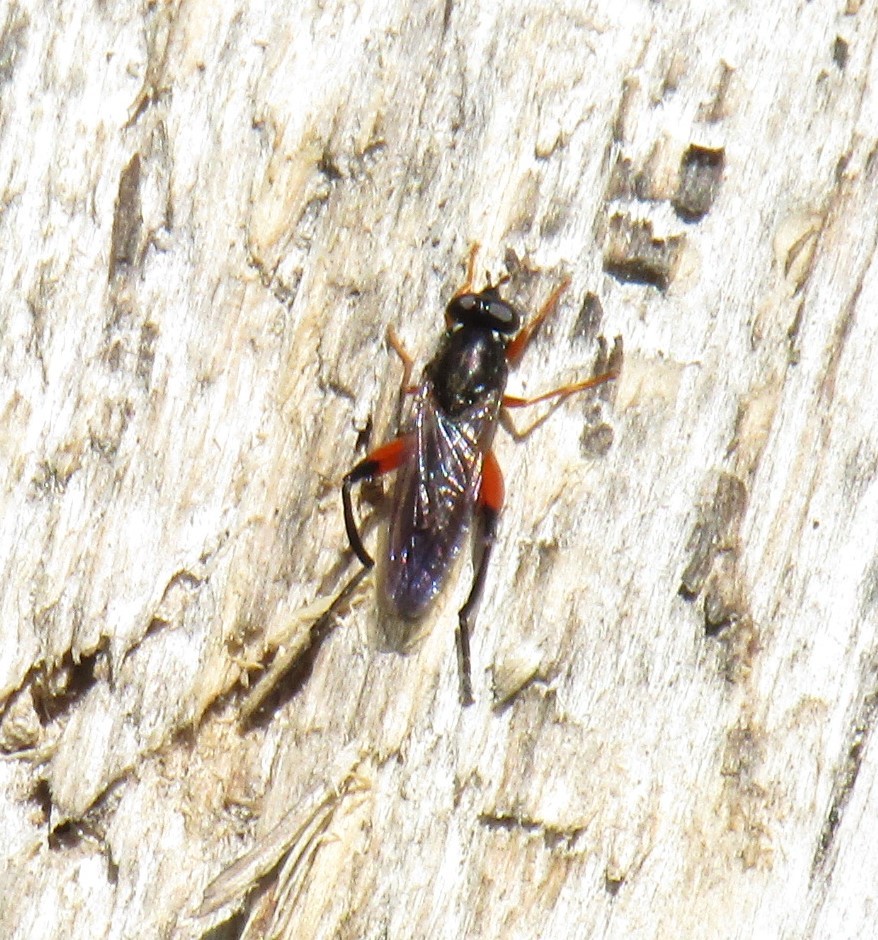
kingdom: Animalia
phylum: Arthropoda
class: Insecta
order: Diptera
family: Syrphidae
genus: Chalcosyrphus
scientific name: Chalcosyrphus valgus
